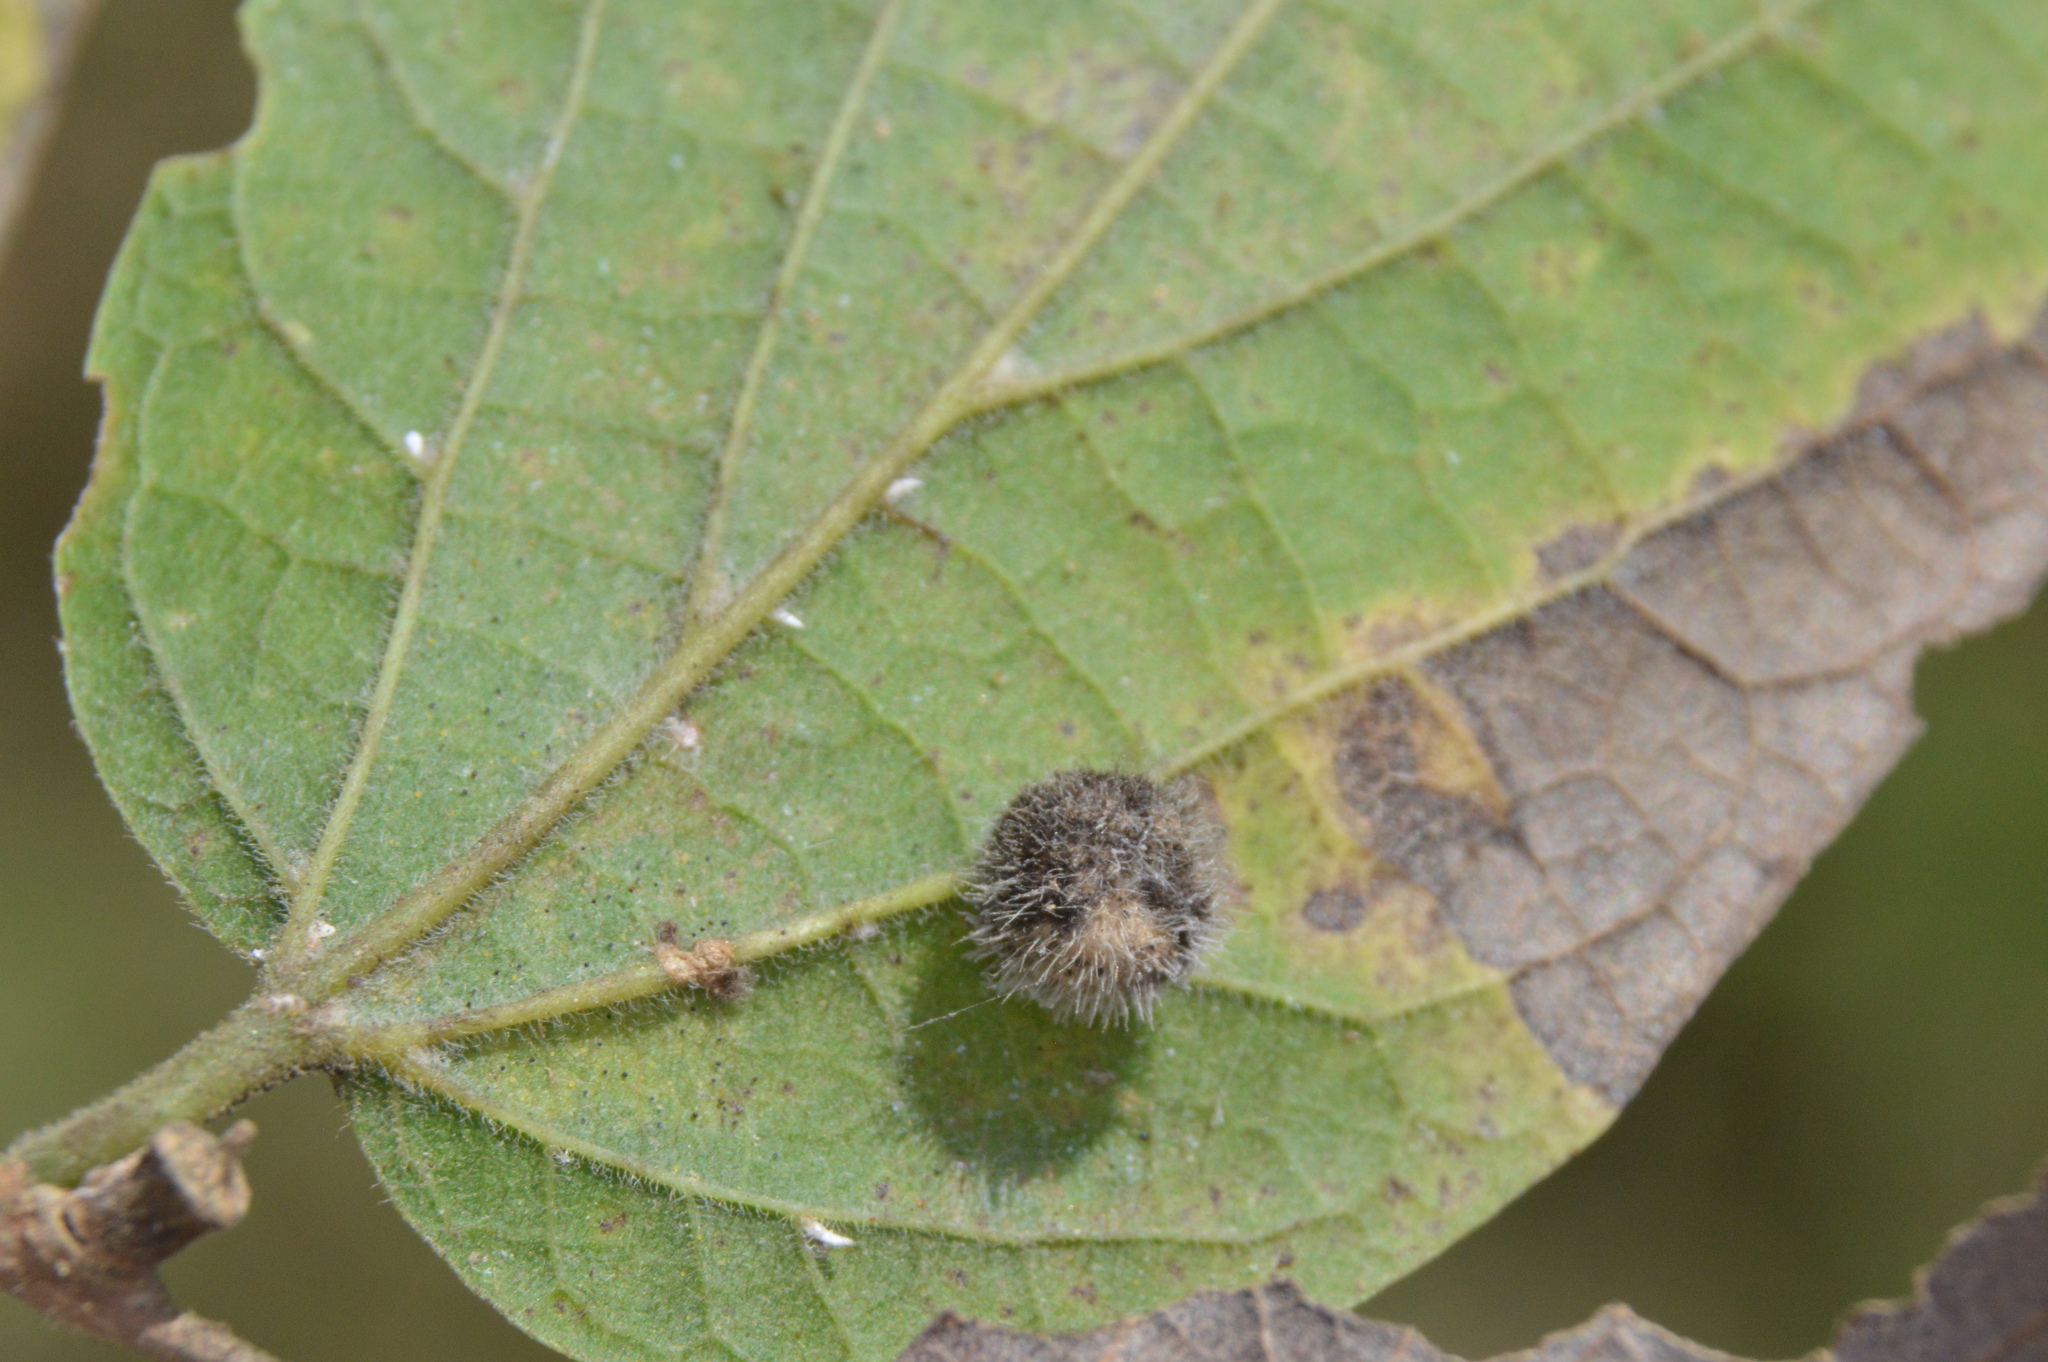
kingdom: Animalia
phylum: Arthropoda
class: Insecta
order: Diptera
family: Cecidomyiidae
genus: Celticecis
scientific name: Celticecis pubescens
